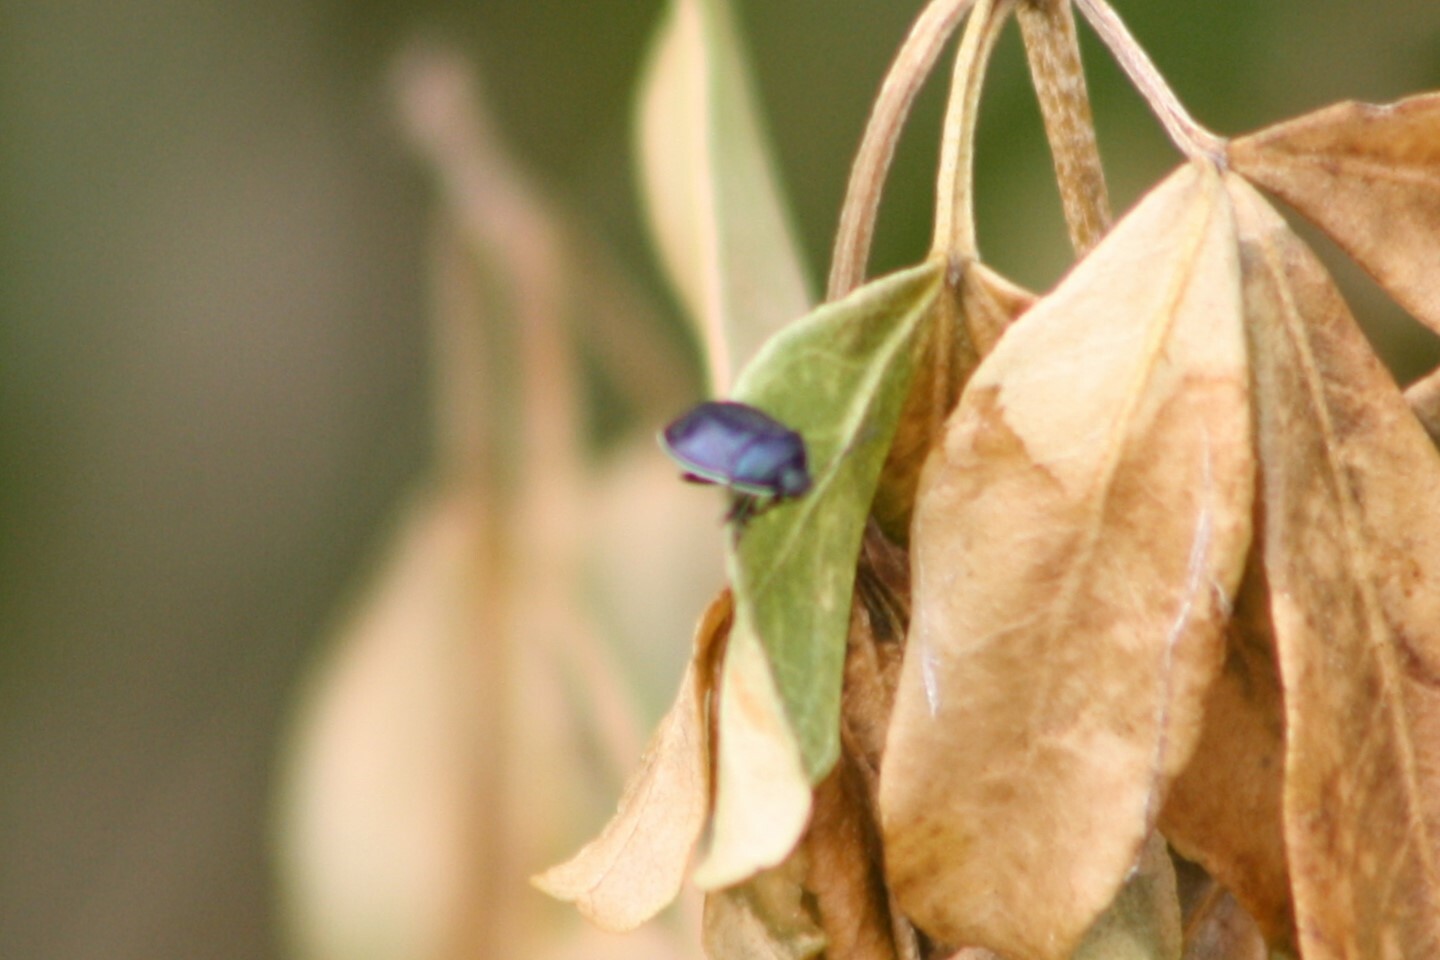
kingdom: Animalia
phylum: Arthropoda
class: Insecta
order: Hemiptera
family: Cydnidae
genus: Sehirus
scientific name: Sehirus cinctus
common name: White-margined burrower bug
